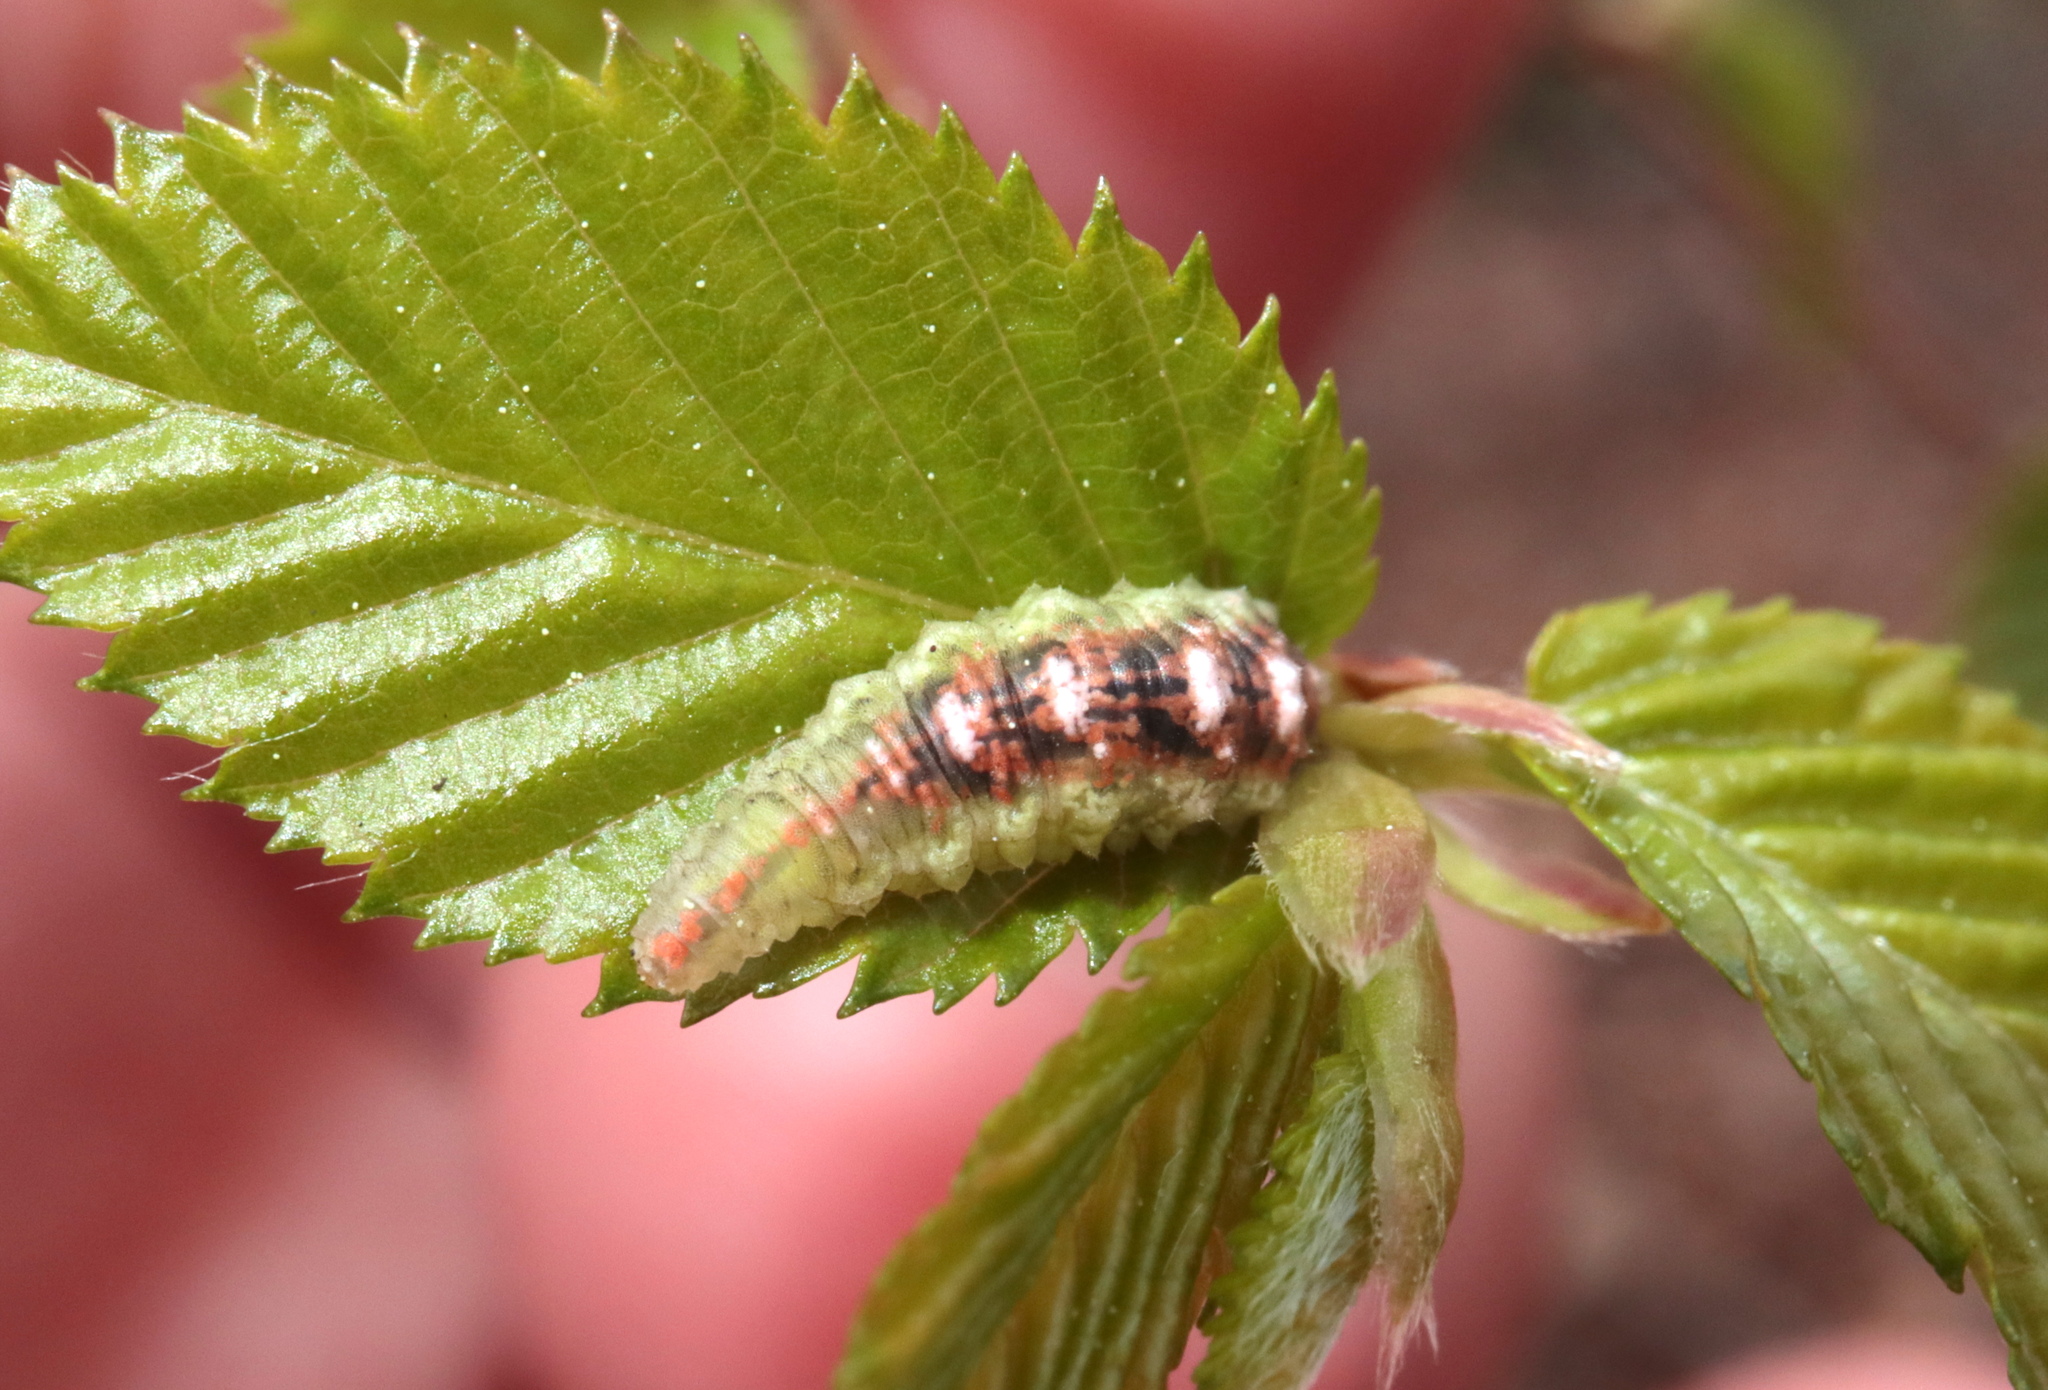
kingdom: Animalia
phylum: Arthropoda
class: Insecta
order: Diptera
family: Syrphidae
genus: Eupeodes
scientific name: Eupeodes pomus
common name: Short-tailed aphideater
